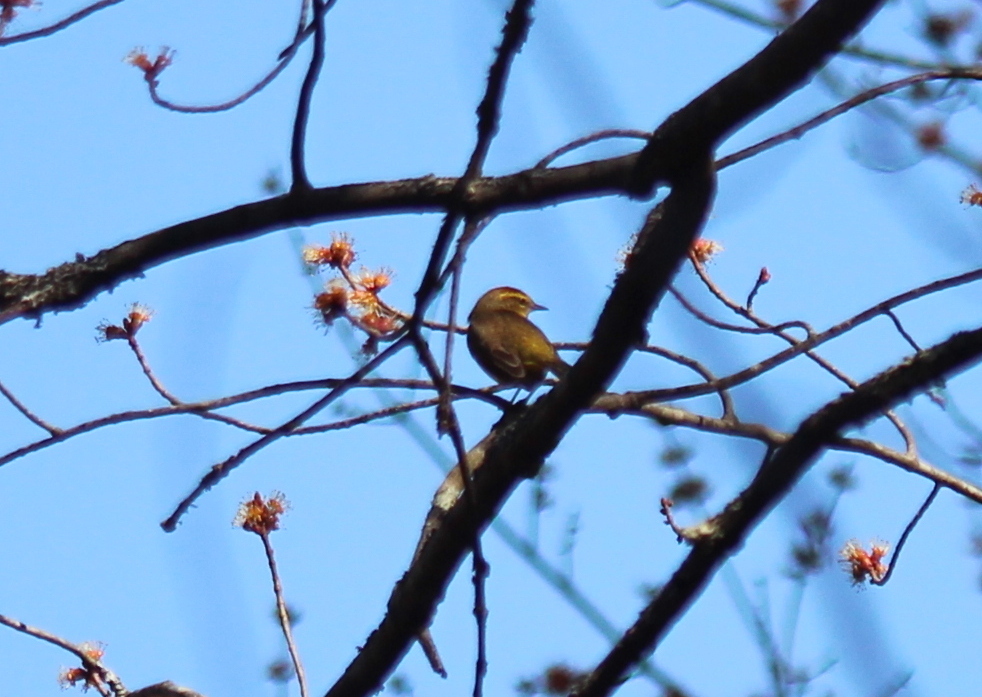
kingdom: Animalia
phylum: Chordata
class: Aves
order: Passeriformes
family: Parulidae
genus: Setophaga
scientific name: Setophaga palmarum
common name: Palm warbler
